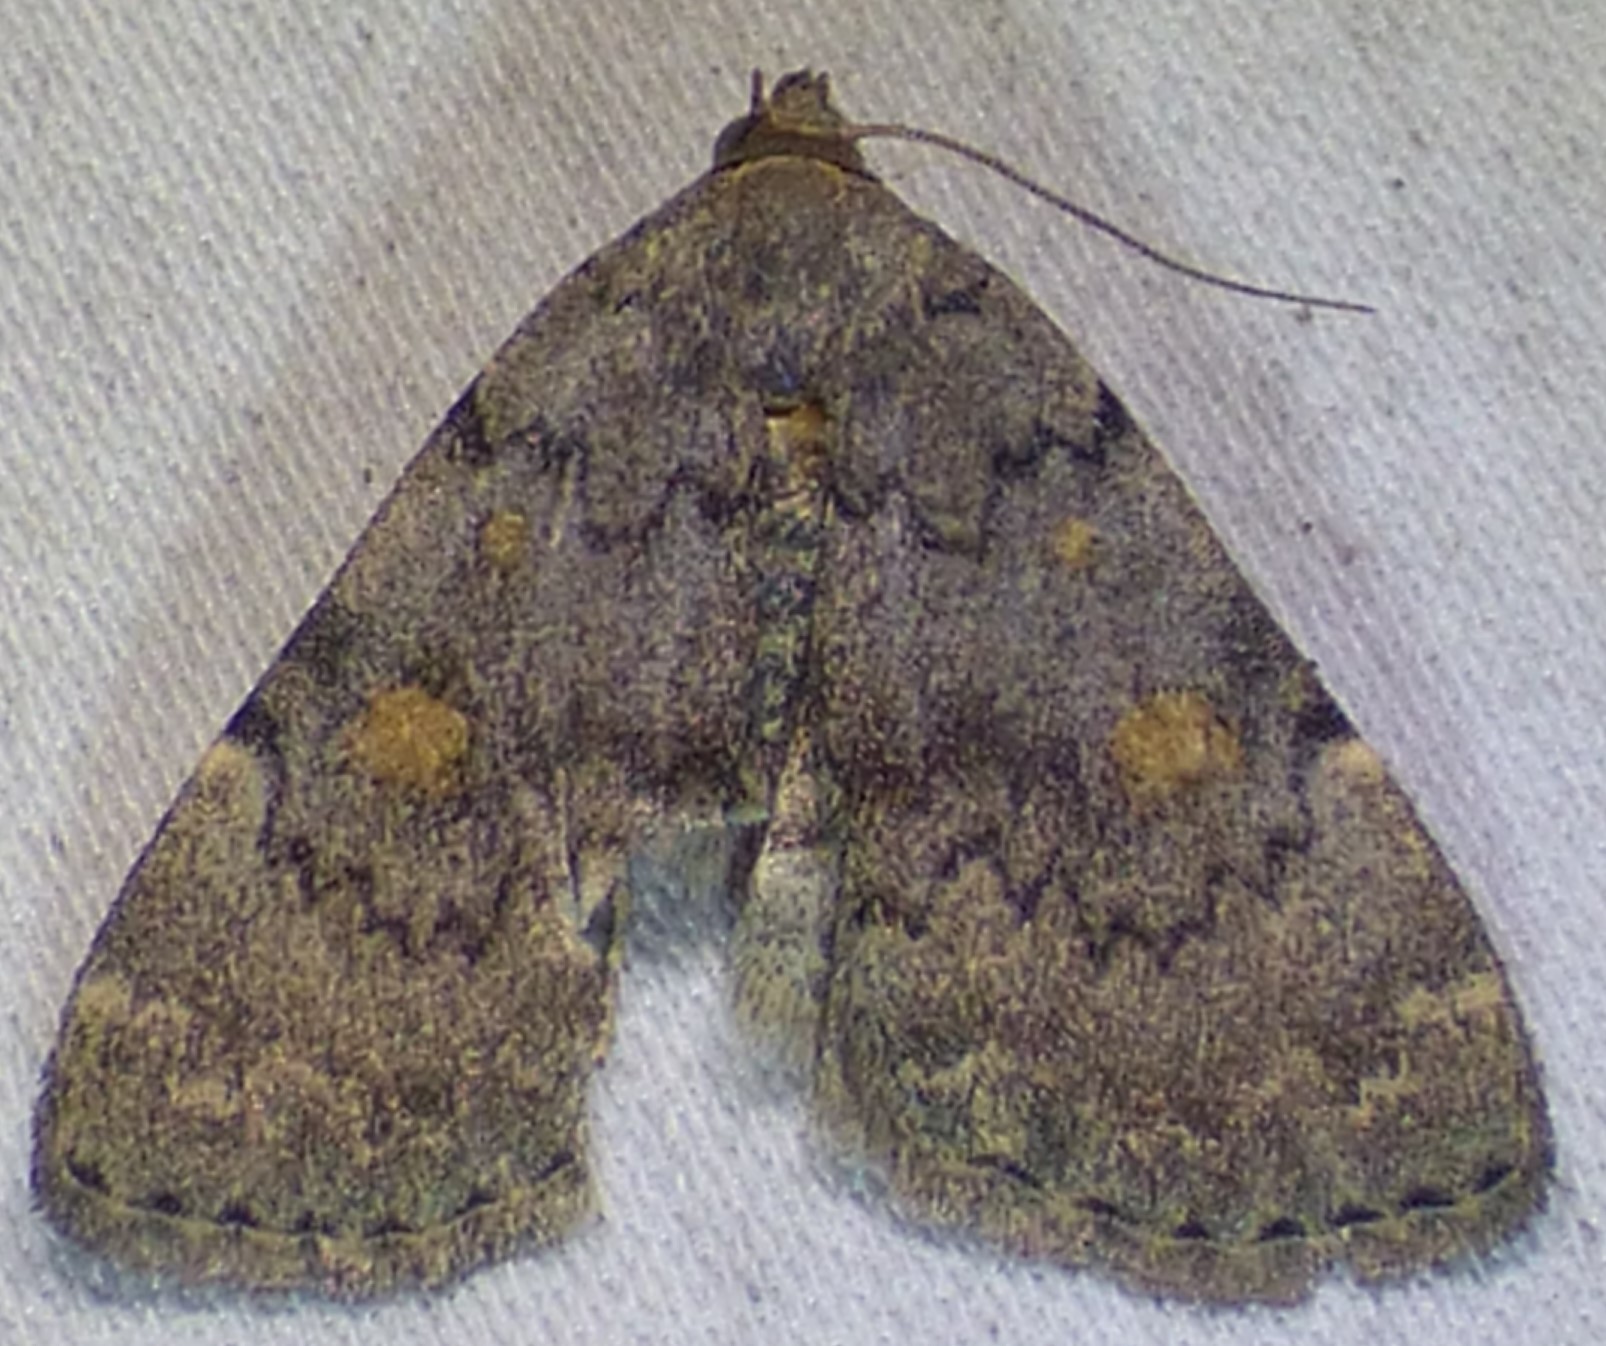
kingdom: Animalia
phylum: Arthropoda
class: Insecta
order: Lepidoptera
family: Erebidae
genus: Idia
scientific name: Idia aemula
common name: Common idia moth
